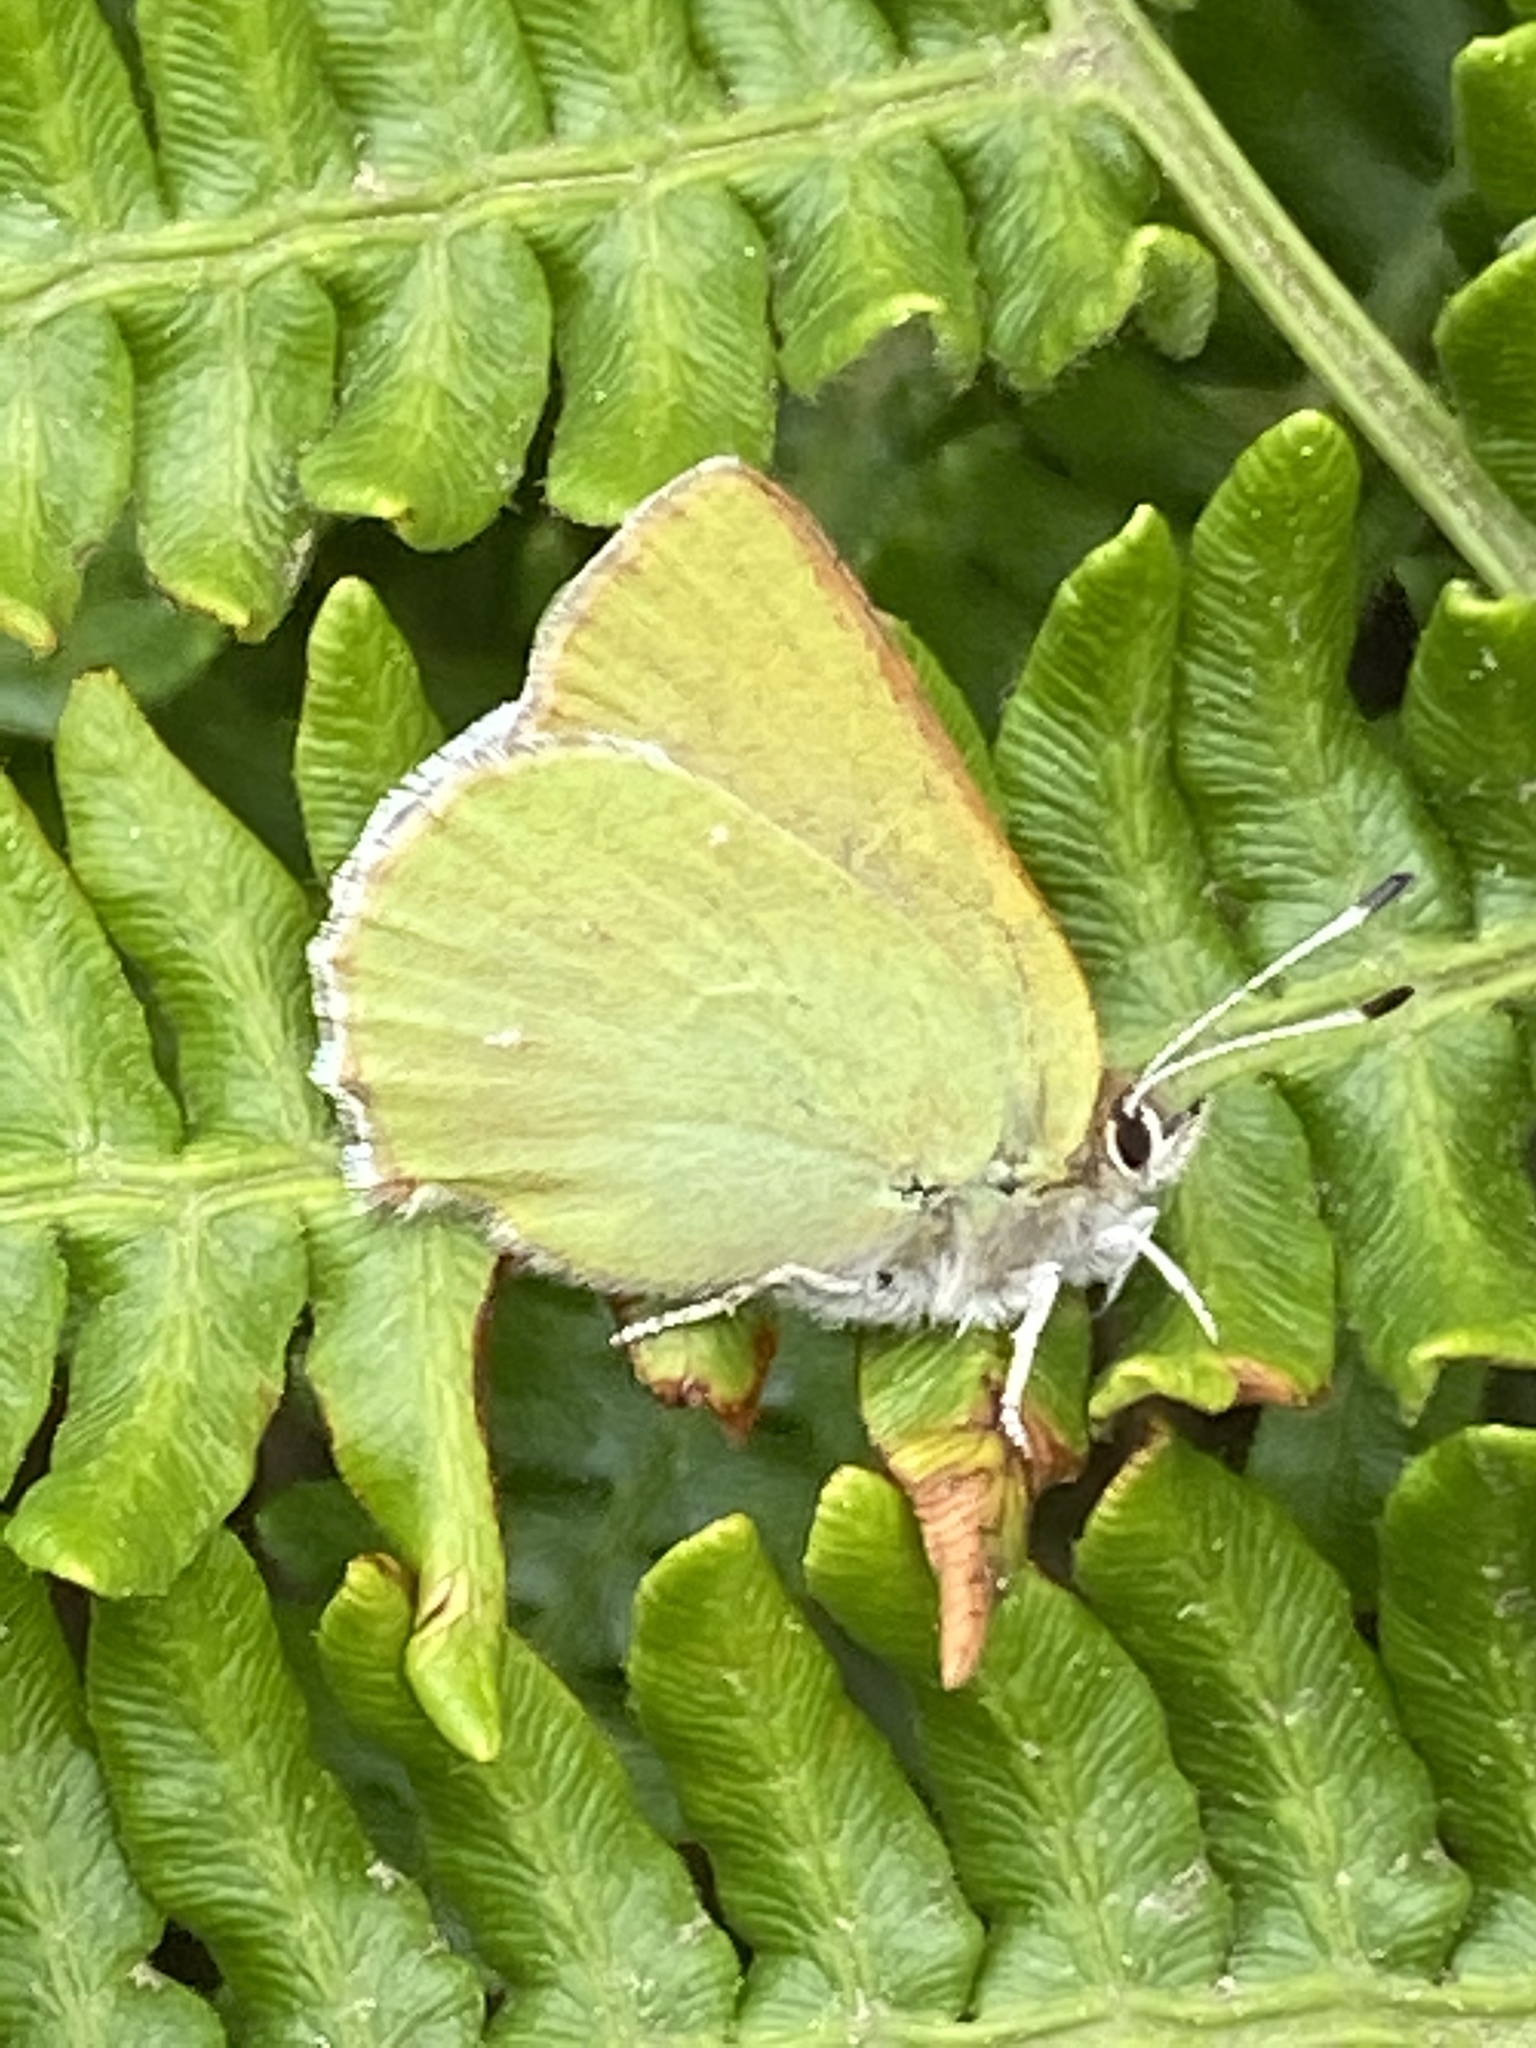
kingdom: Animalia
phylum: Arthropoda
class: Insecta
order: Lepidoptera
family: Lycaenidae
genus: Callophrys
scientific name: Callophrys viridis
